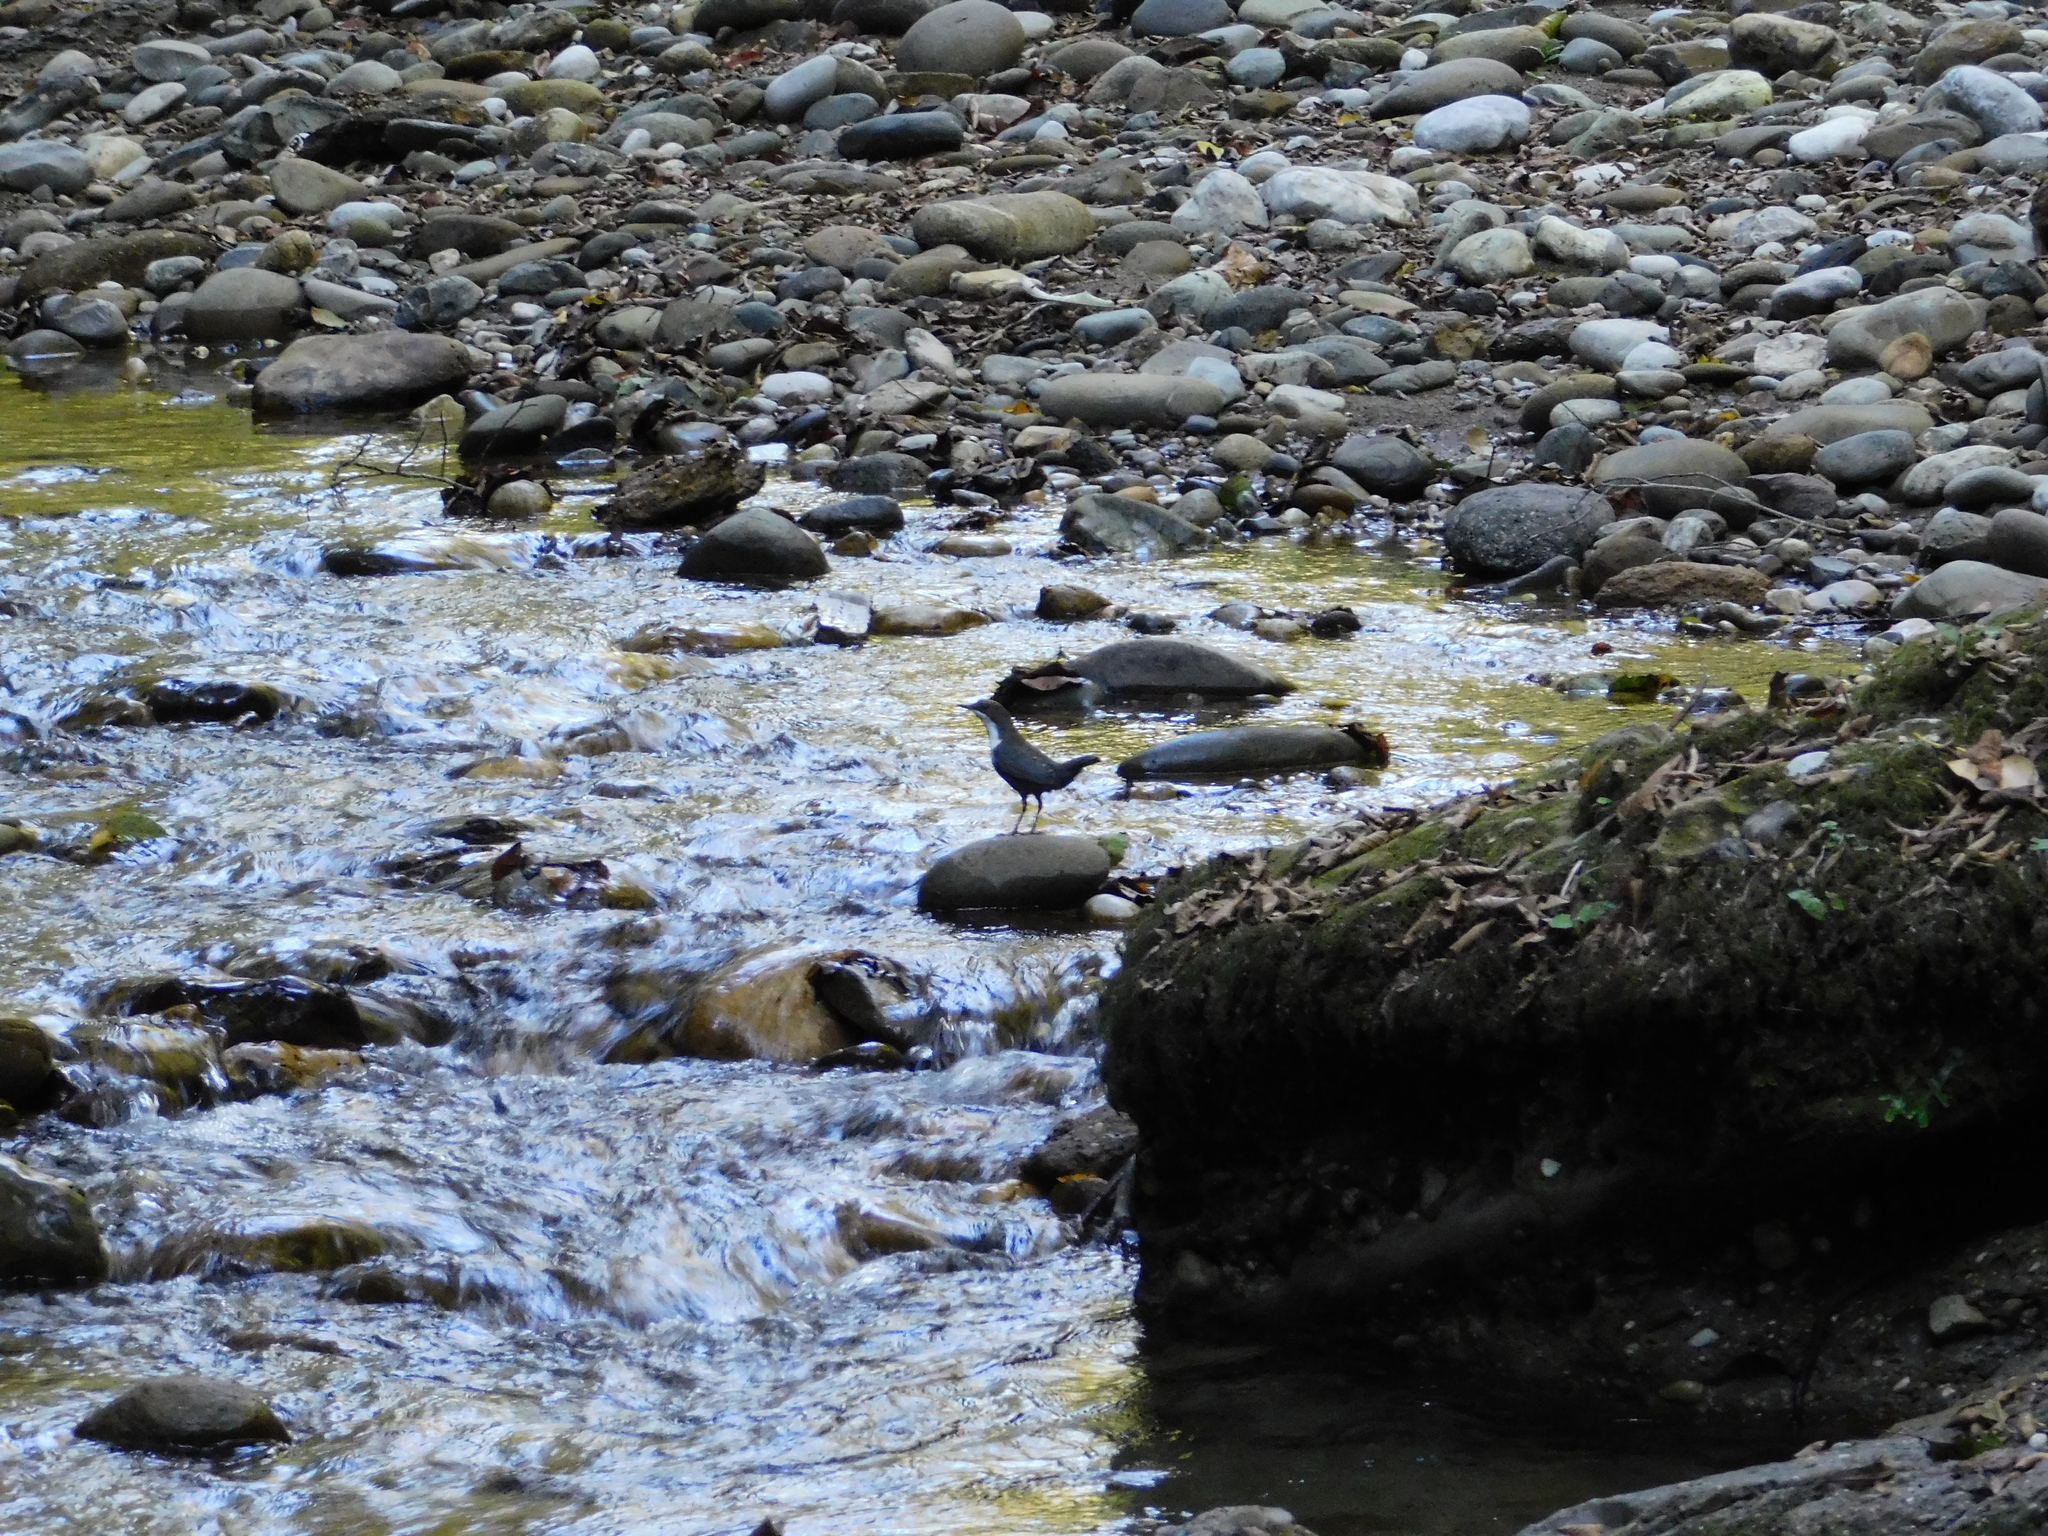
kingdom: Animalia
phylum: Chordata
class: Aves
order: Passeriformes
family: Cinclidae
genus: Cinclus
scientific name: Cinclus cinclus
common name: White-throated dipper
